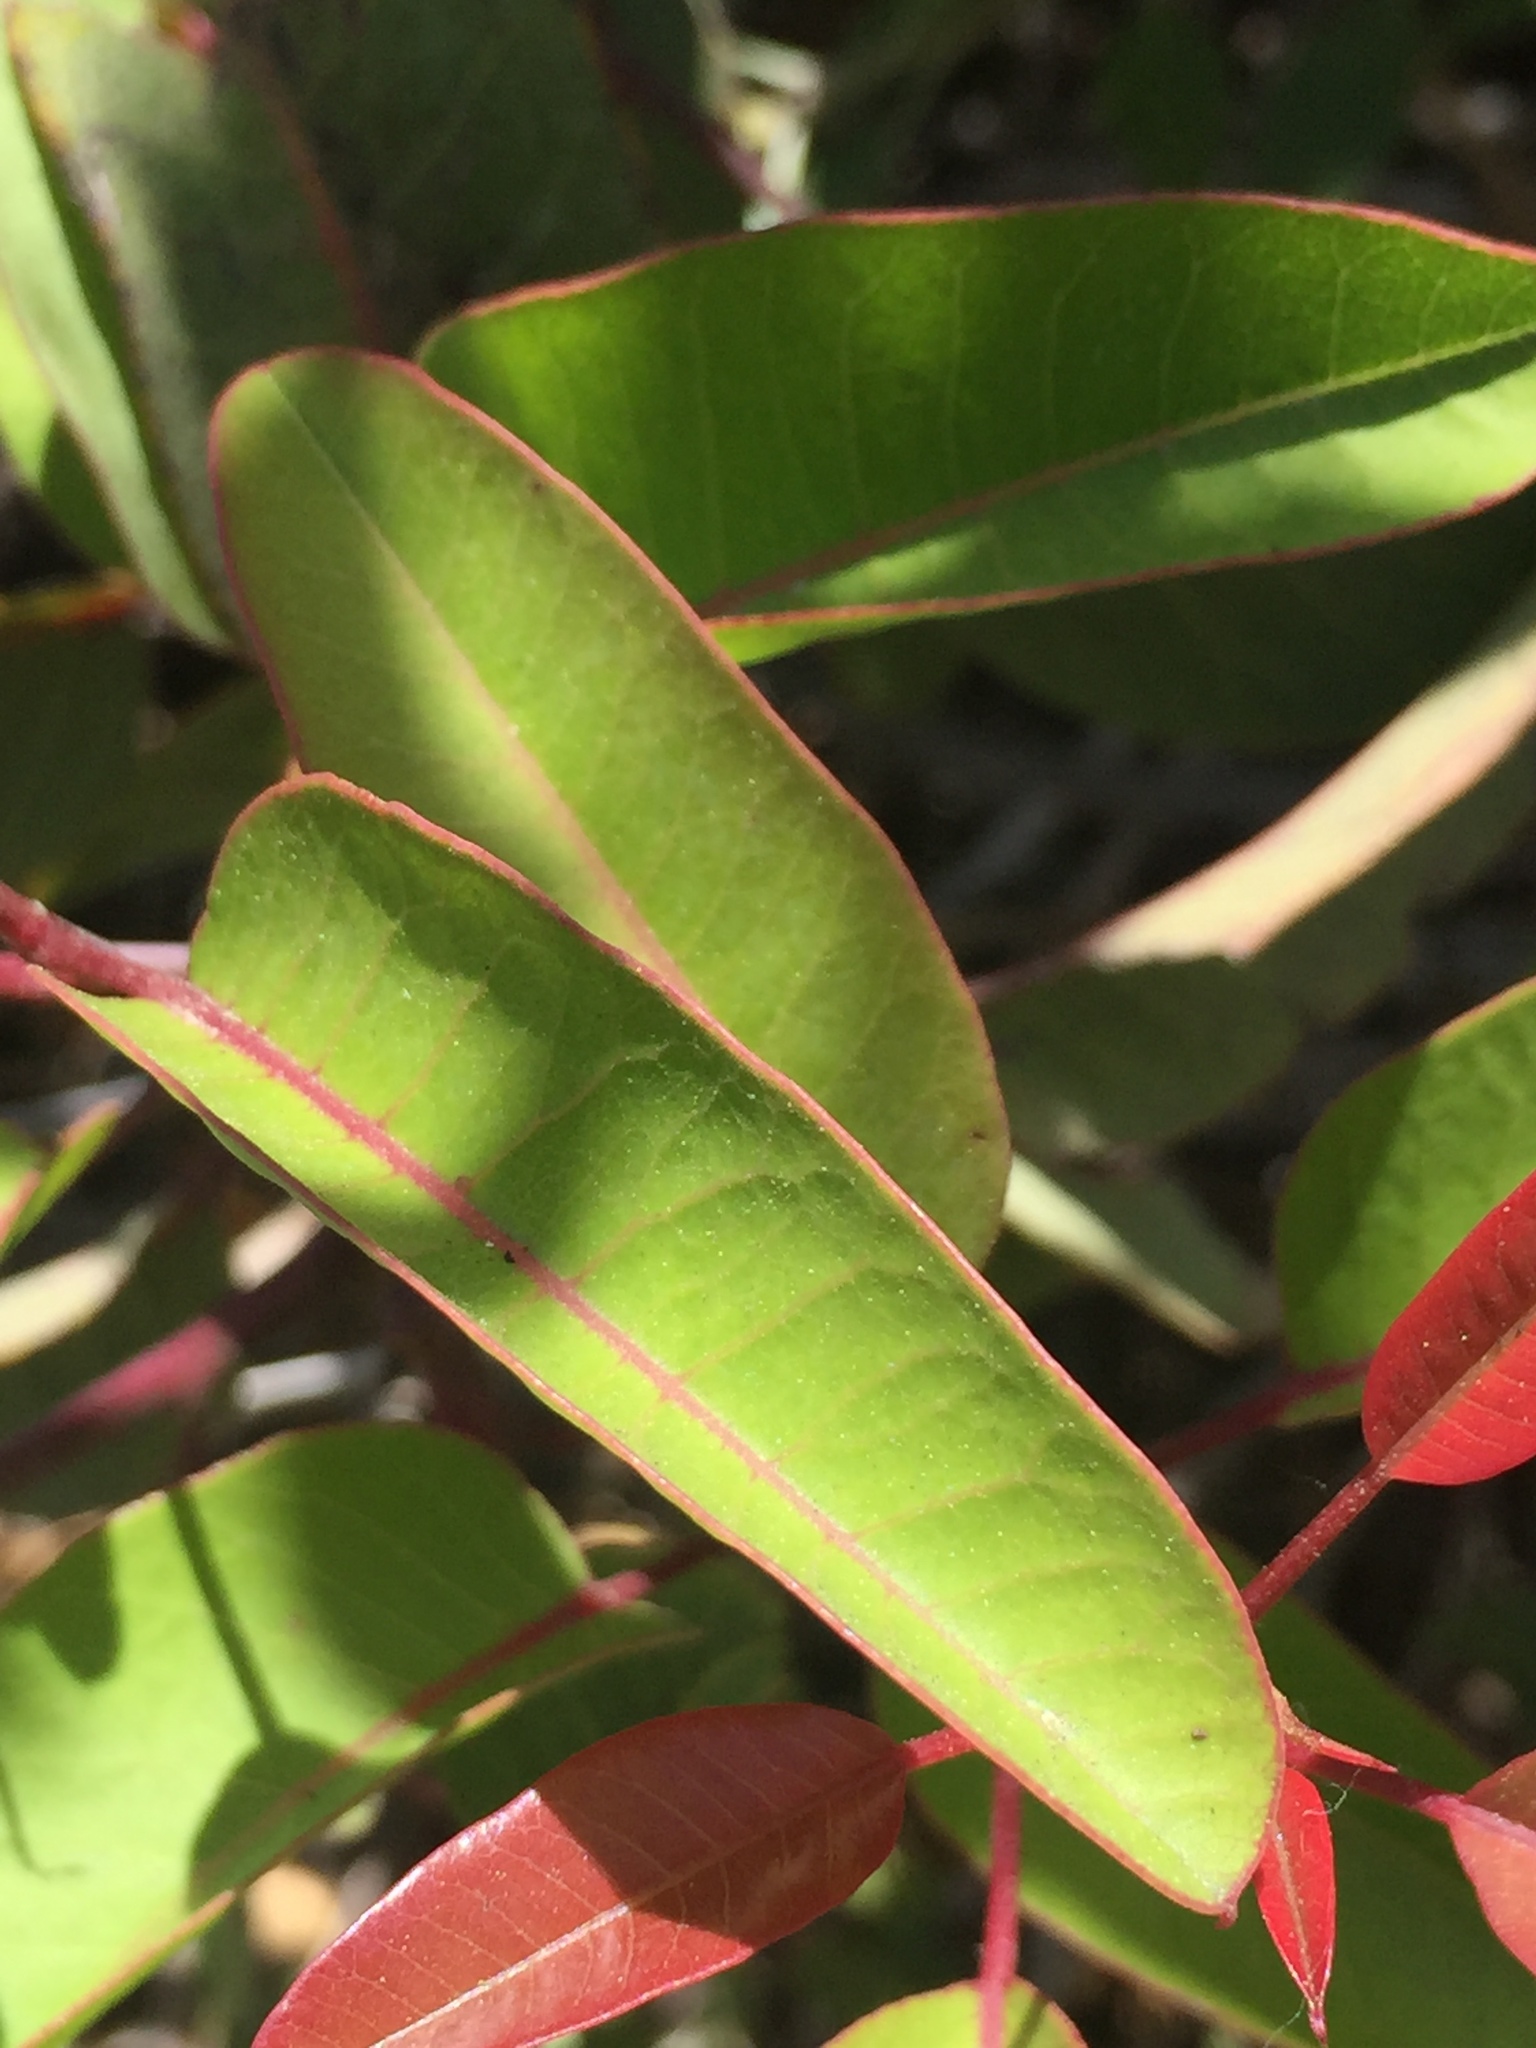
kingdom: Plantae
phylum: Tracheophyta
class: Magnoliopsida
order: Sapindales
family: Anacardiaceae
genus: Malosma
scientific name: Malosma laurina
